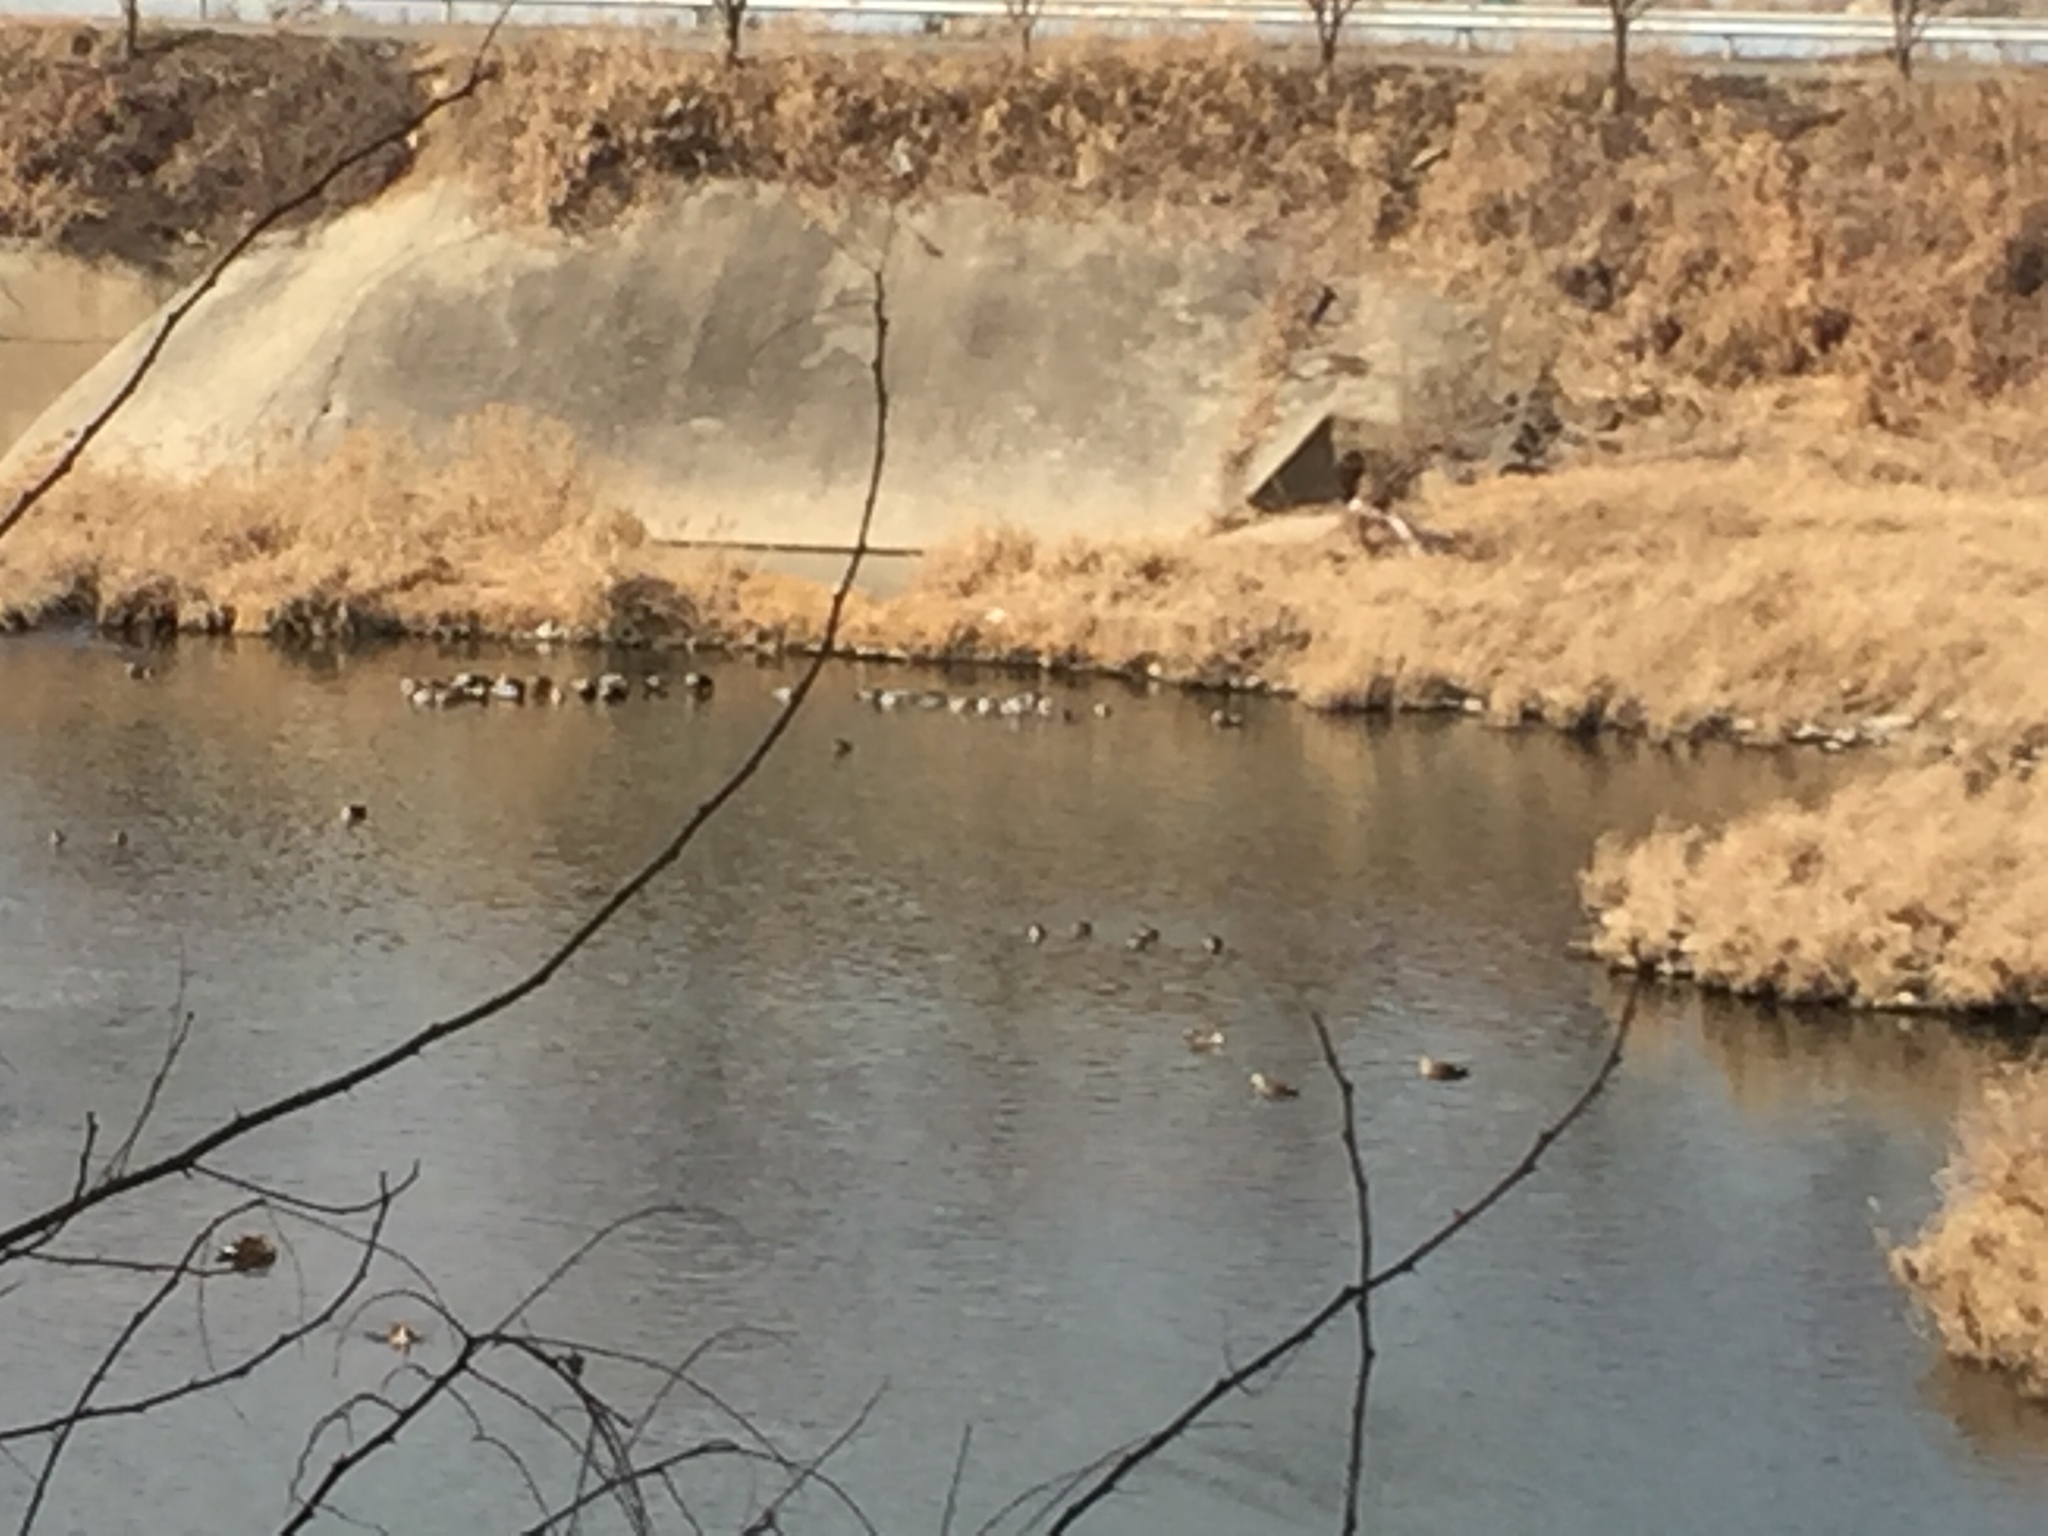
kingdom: Animalia
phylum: Chordata
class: Aves
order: Anseriformes
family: Anatidae
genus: Anas
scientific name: Anas platyrhynchos
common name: Mallard
